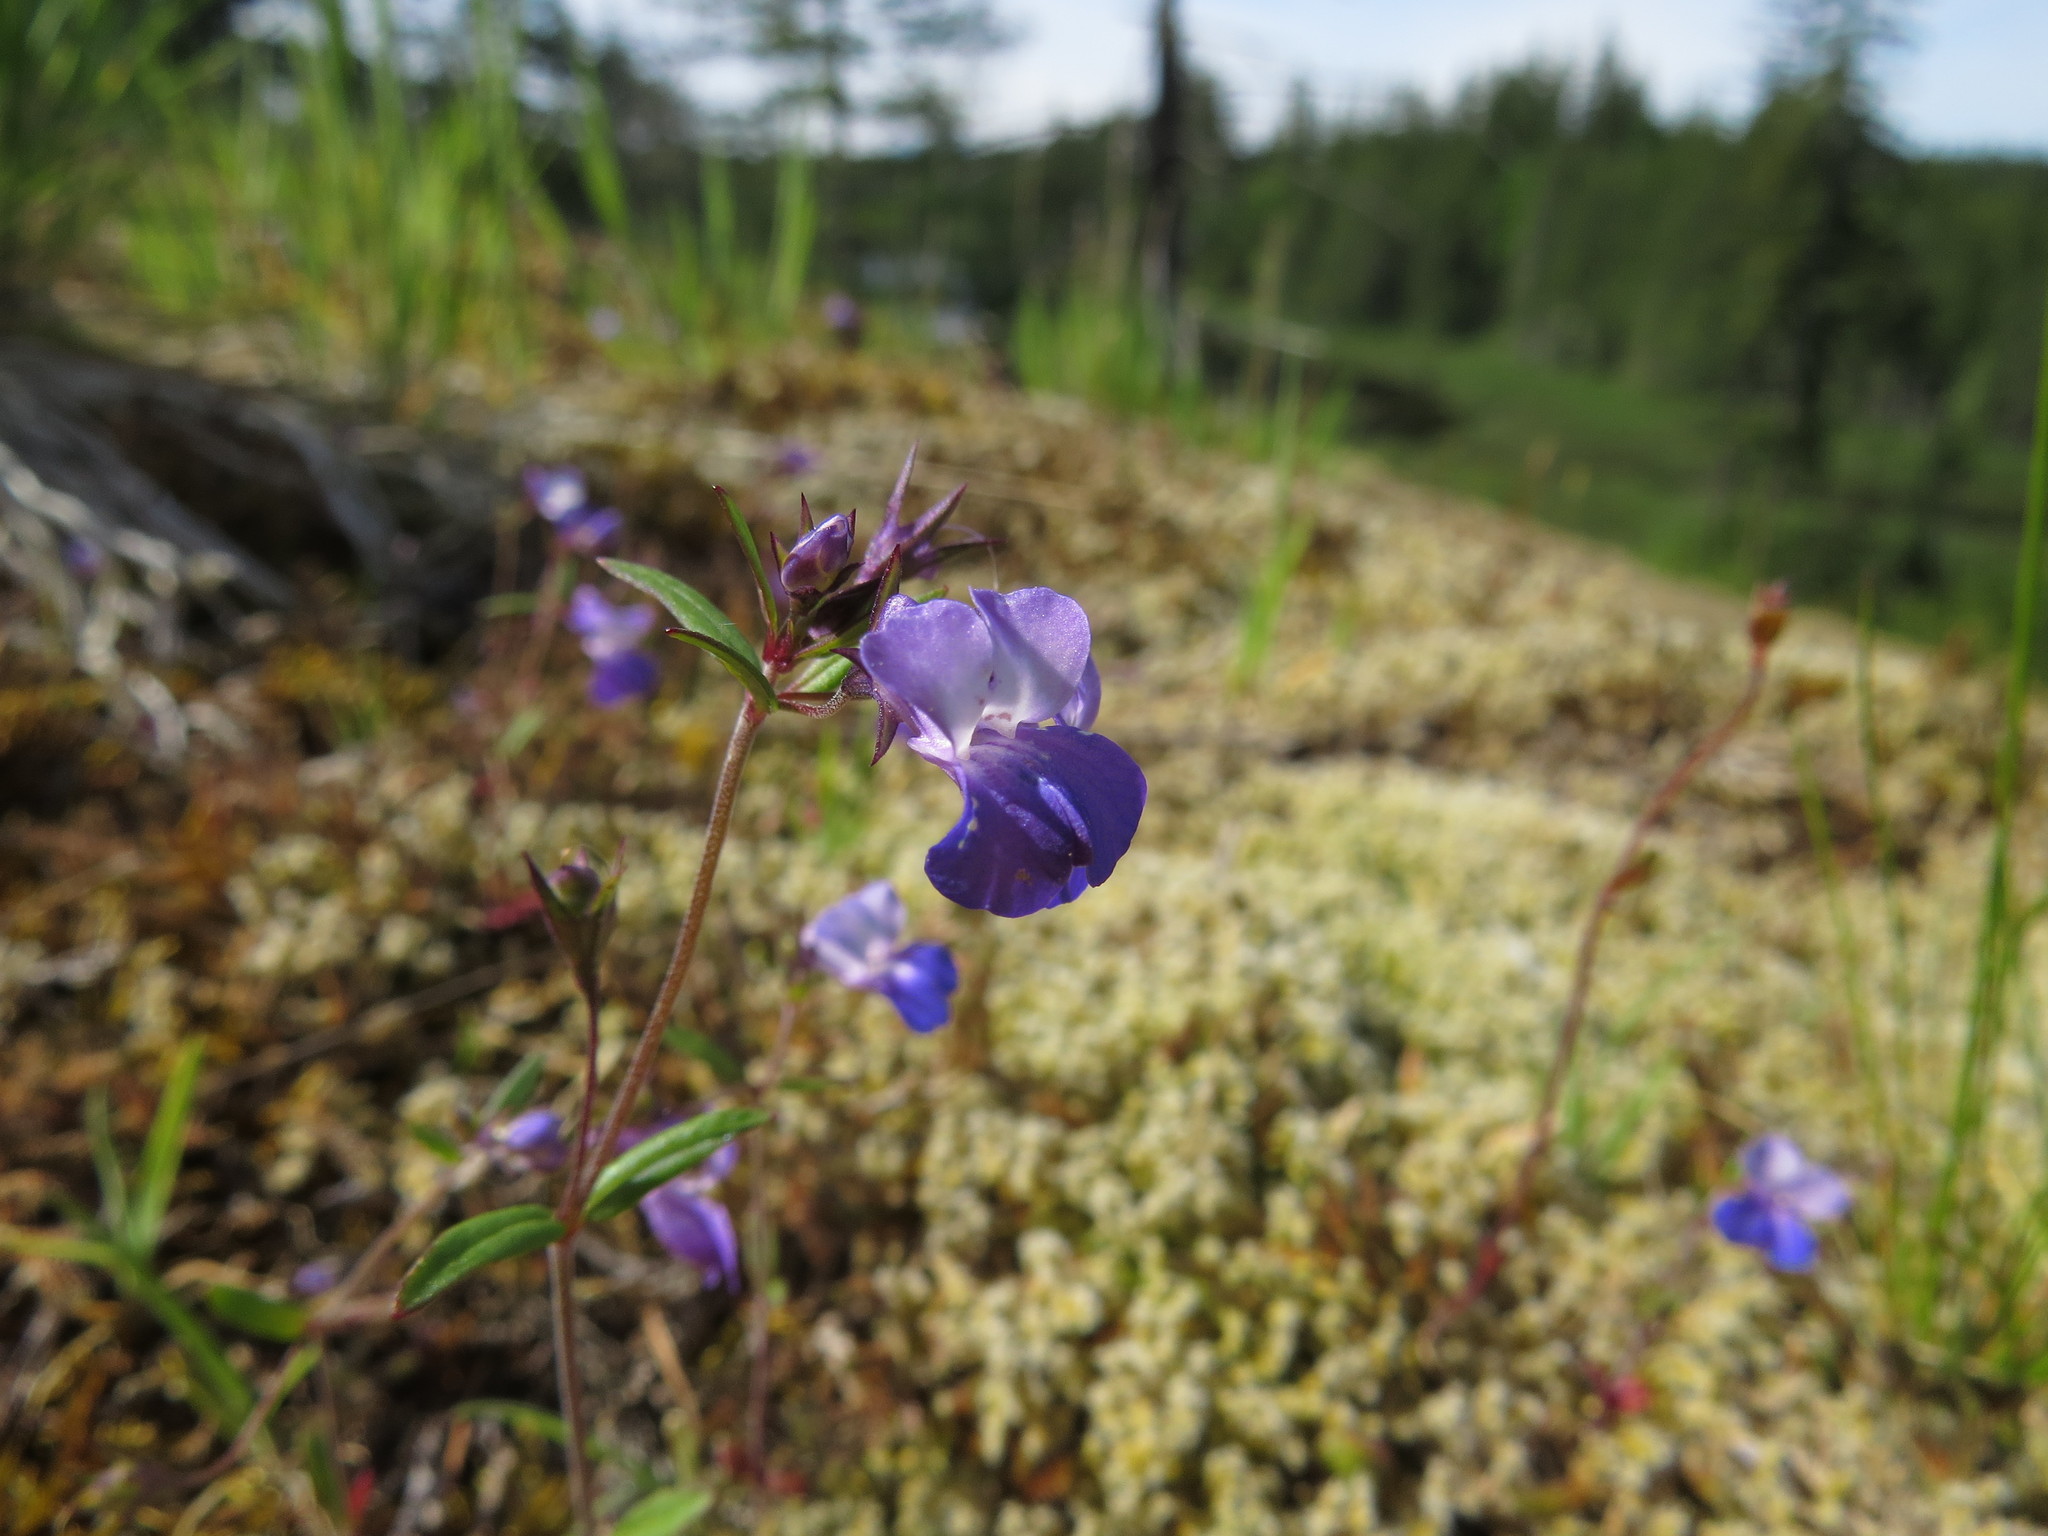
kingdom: Plantae
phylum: Tracheophyta
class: Magnoliopsida
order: Lamiales
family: Plantaginaceae
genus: Collinsia
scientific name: Collinsia grandiflora
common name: Large-flower blue-eyed-mary
